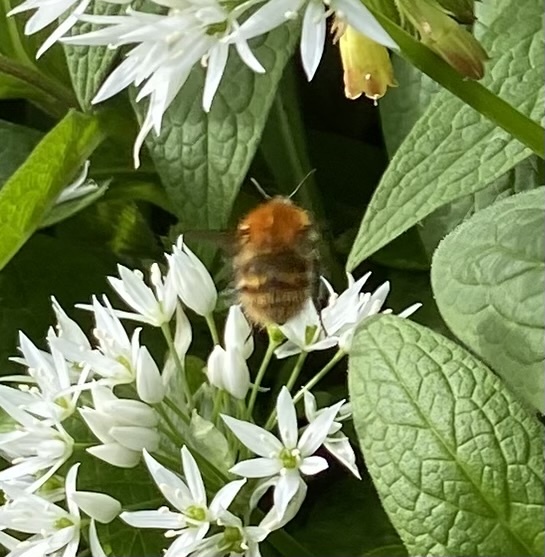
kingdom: Animalia
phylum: Arthropoda
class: Insecta
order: Hymenoptera
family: Apidae
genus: Bombus
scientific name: Bombus pascuorum
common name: Common carder bee
